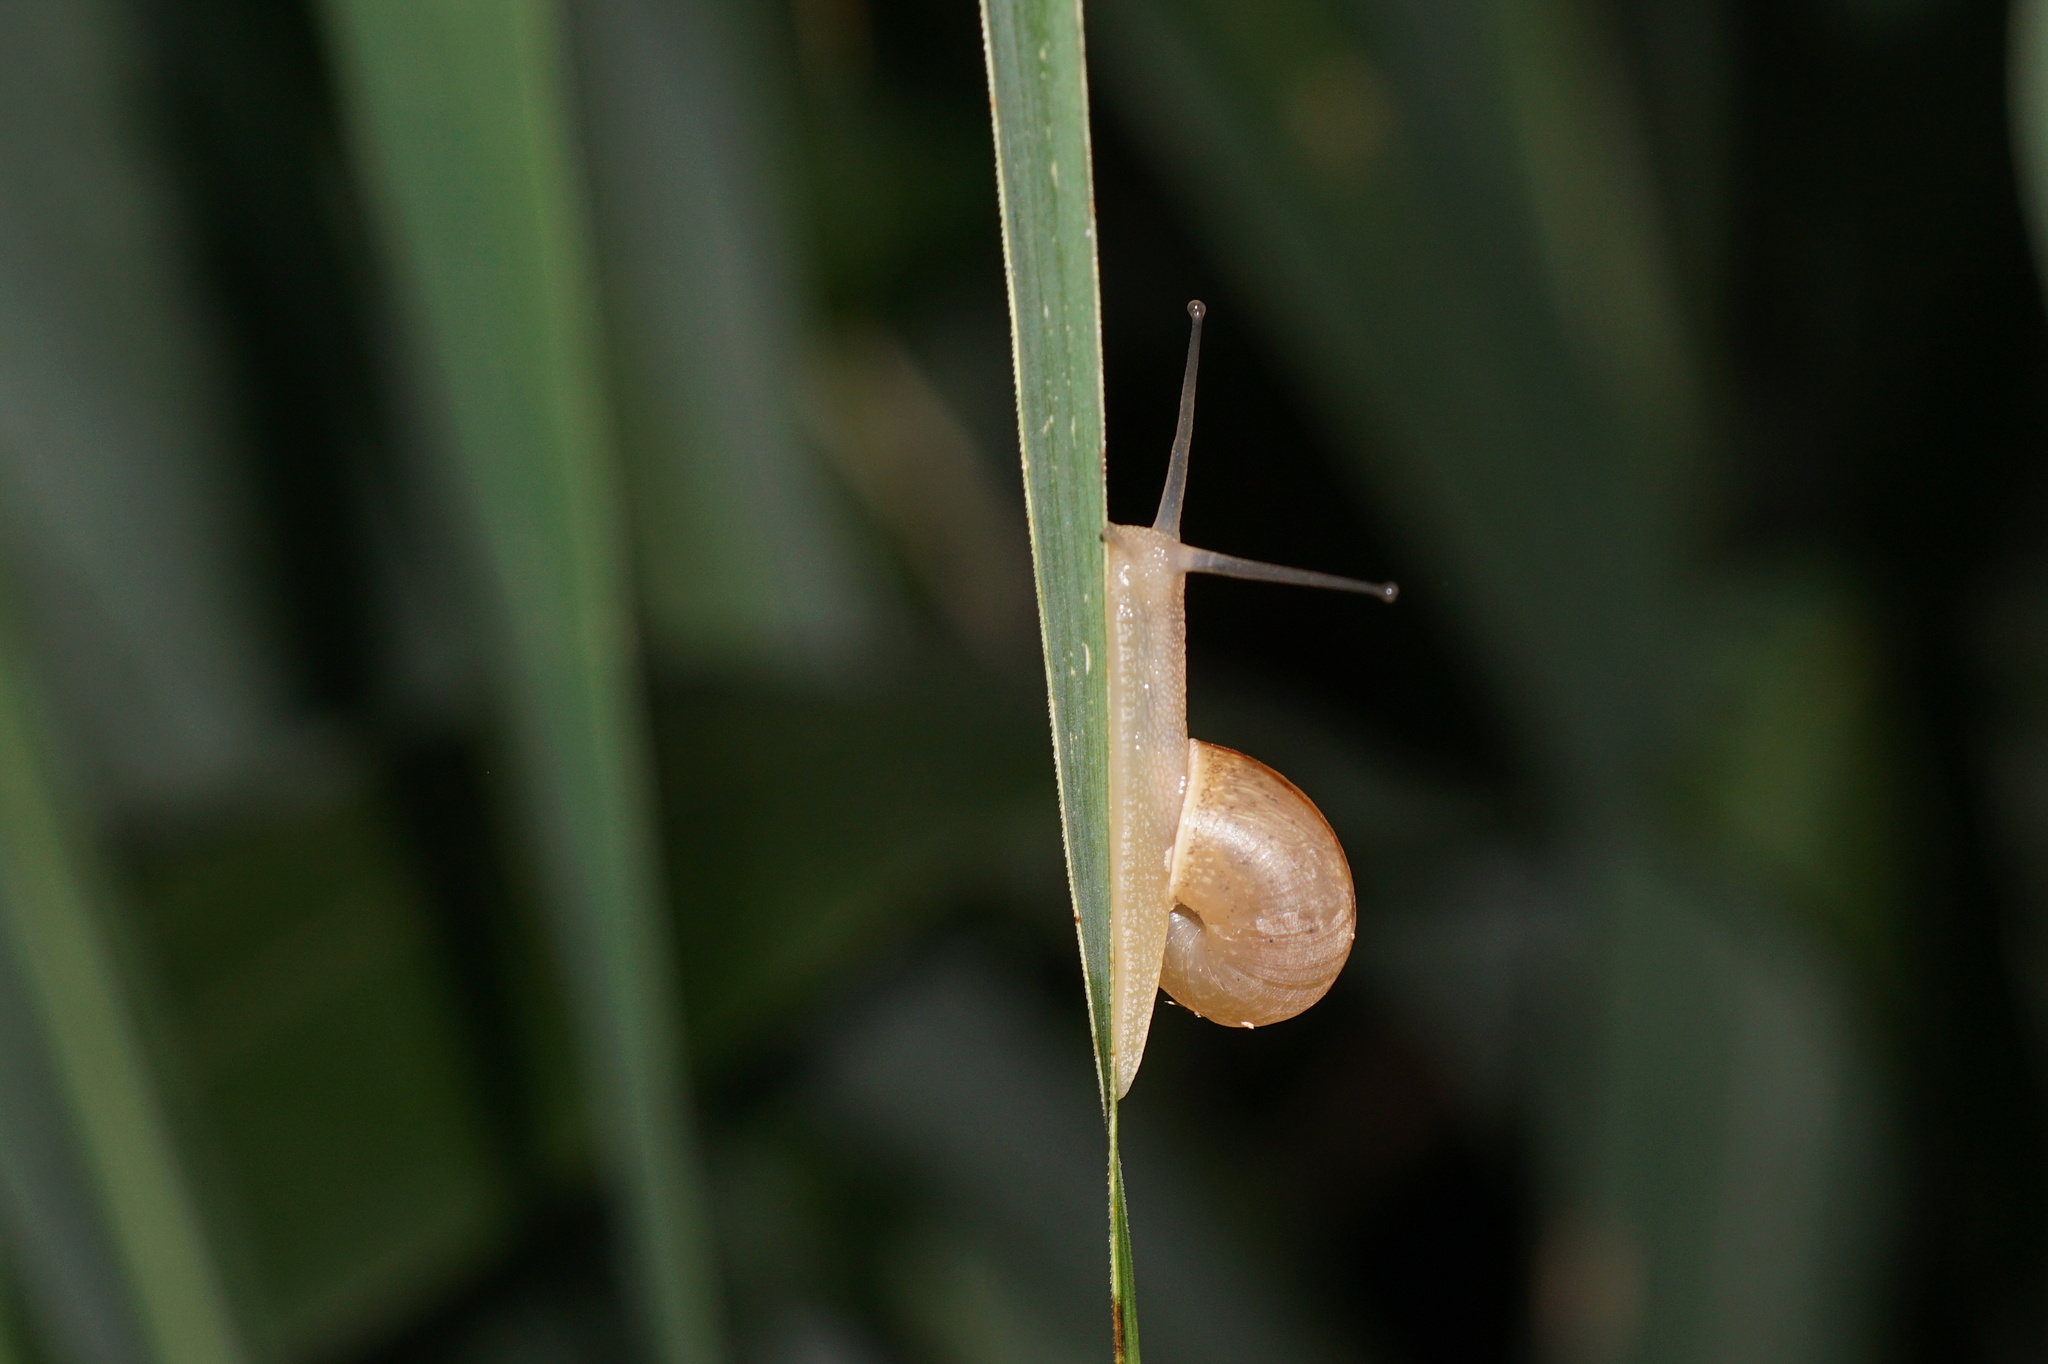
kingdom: Animalia
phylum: Mollusca
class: Gastropoda
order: Stylommatophora
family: Camaenidae
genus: Bradybaena
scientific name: Bradybaena similaris
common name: Asian trampsnail
